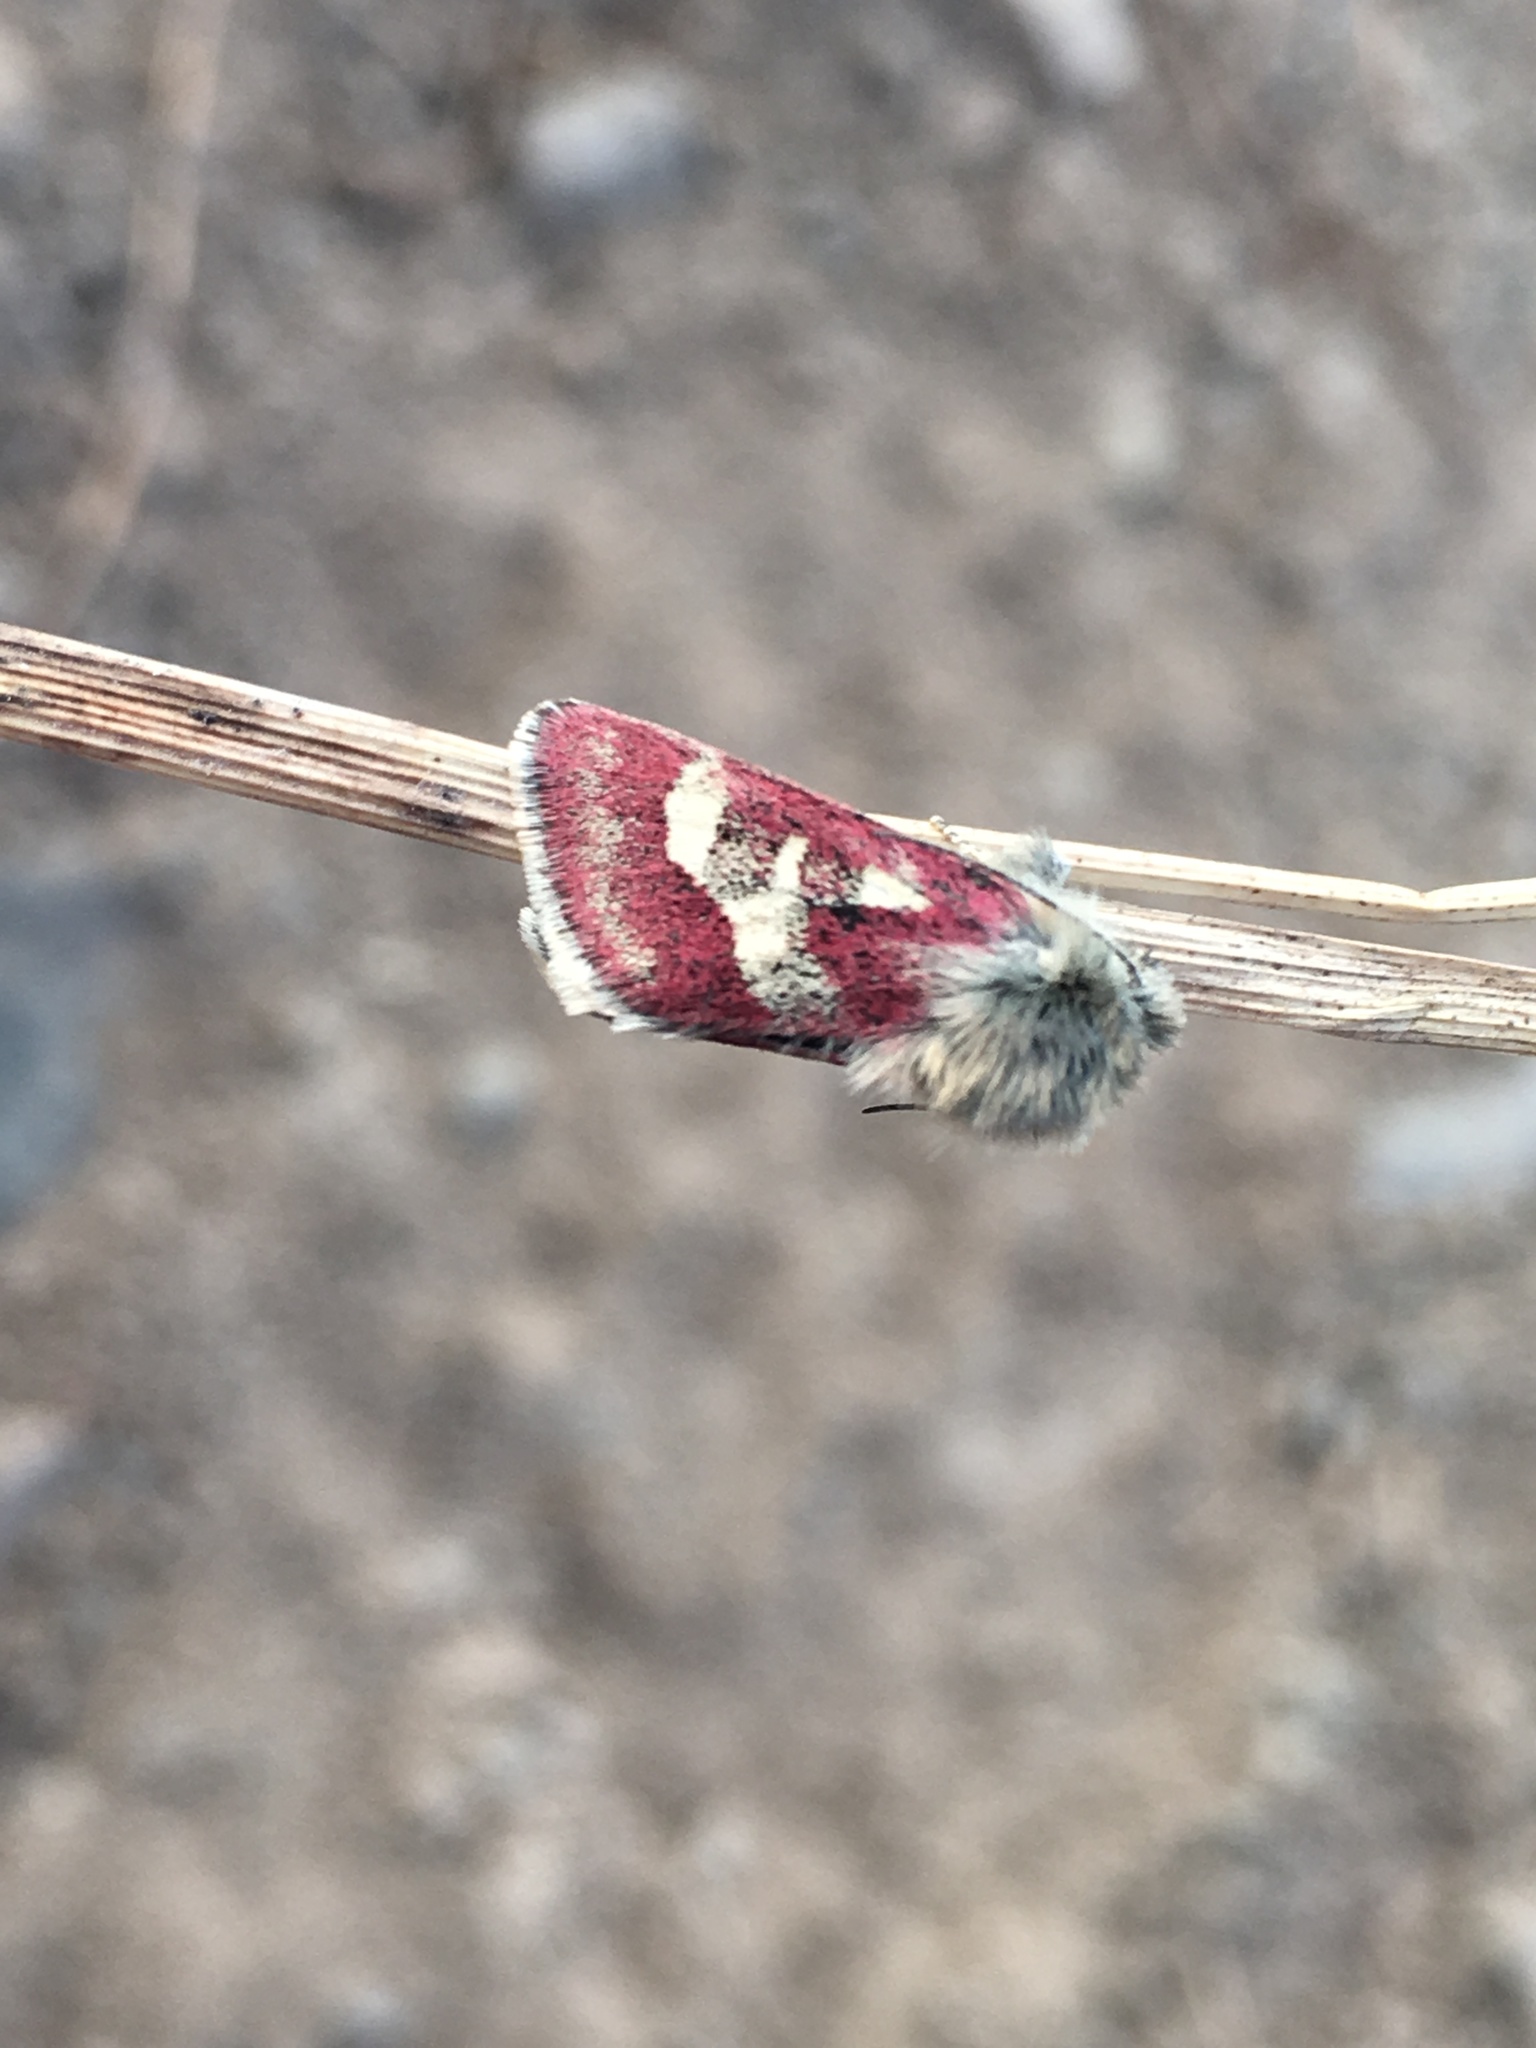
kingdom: Animalia
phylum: Arthropoda
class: Insecta
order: Lepidoptera
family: Noctuidae
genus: Schinia
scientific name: Schinia persimilis
